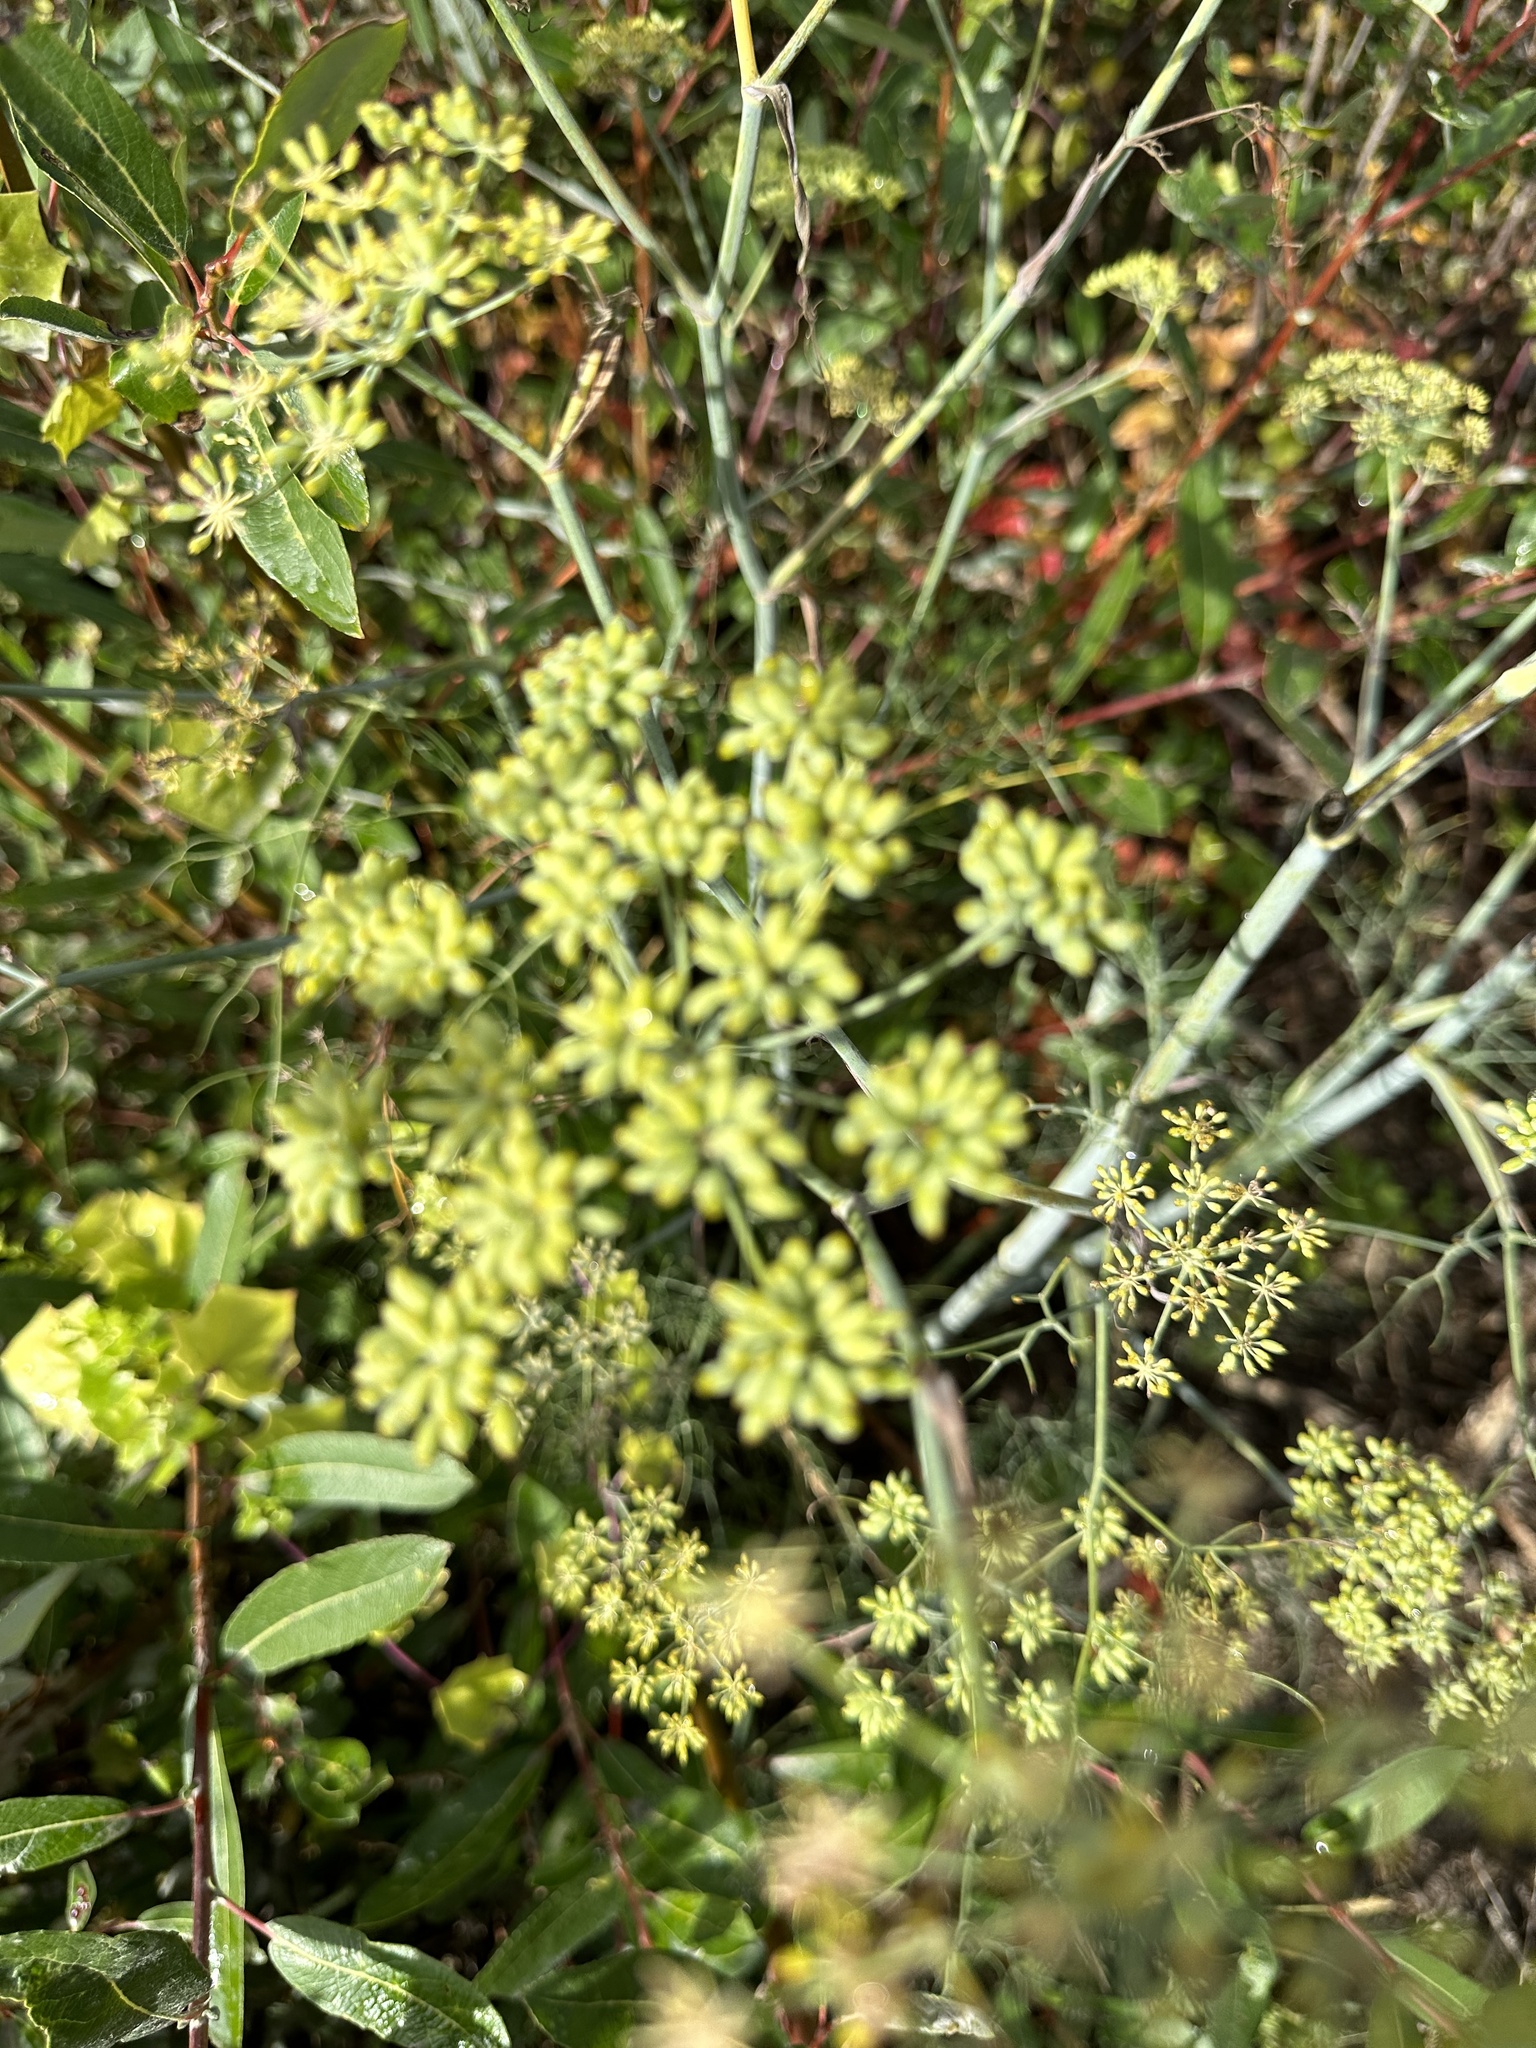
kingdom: Plantae
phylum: Tracheophyta
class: Magnoliopsida
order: Apiales
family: Apiaceae
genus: Foeniculum
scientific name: Foeniculum vulgare
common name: Fennel
